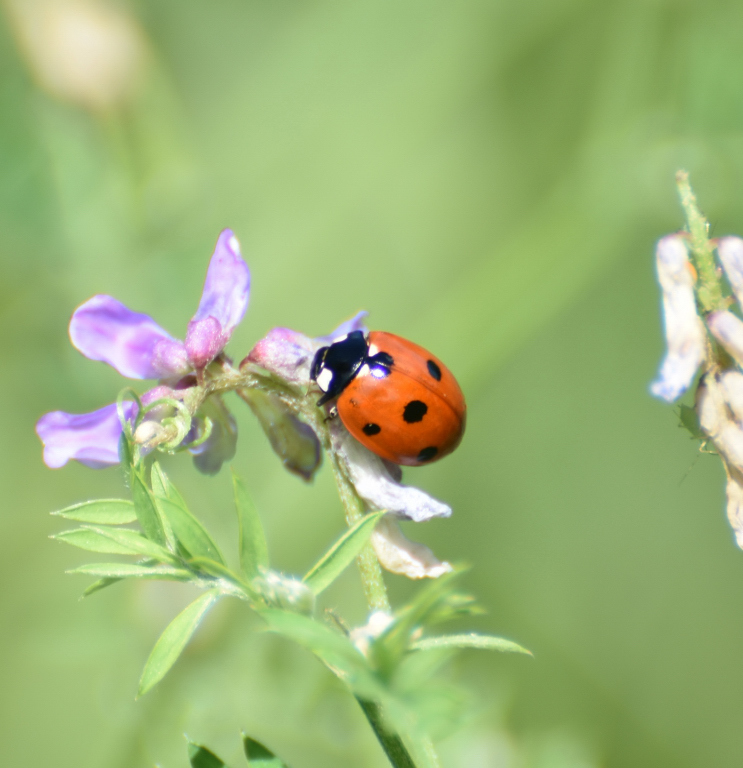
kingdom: Animalia
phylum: Arthropoda
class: Insecta
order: Coleoptera
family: Coccinellidae
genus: Coccinella
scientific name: Coccinella septempunctata
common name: Sevenspotted lady beetle
